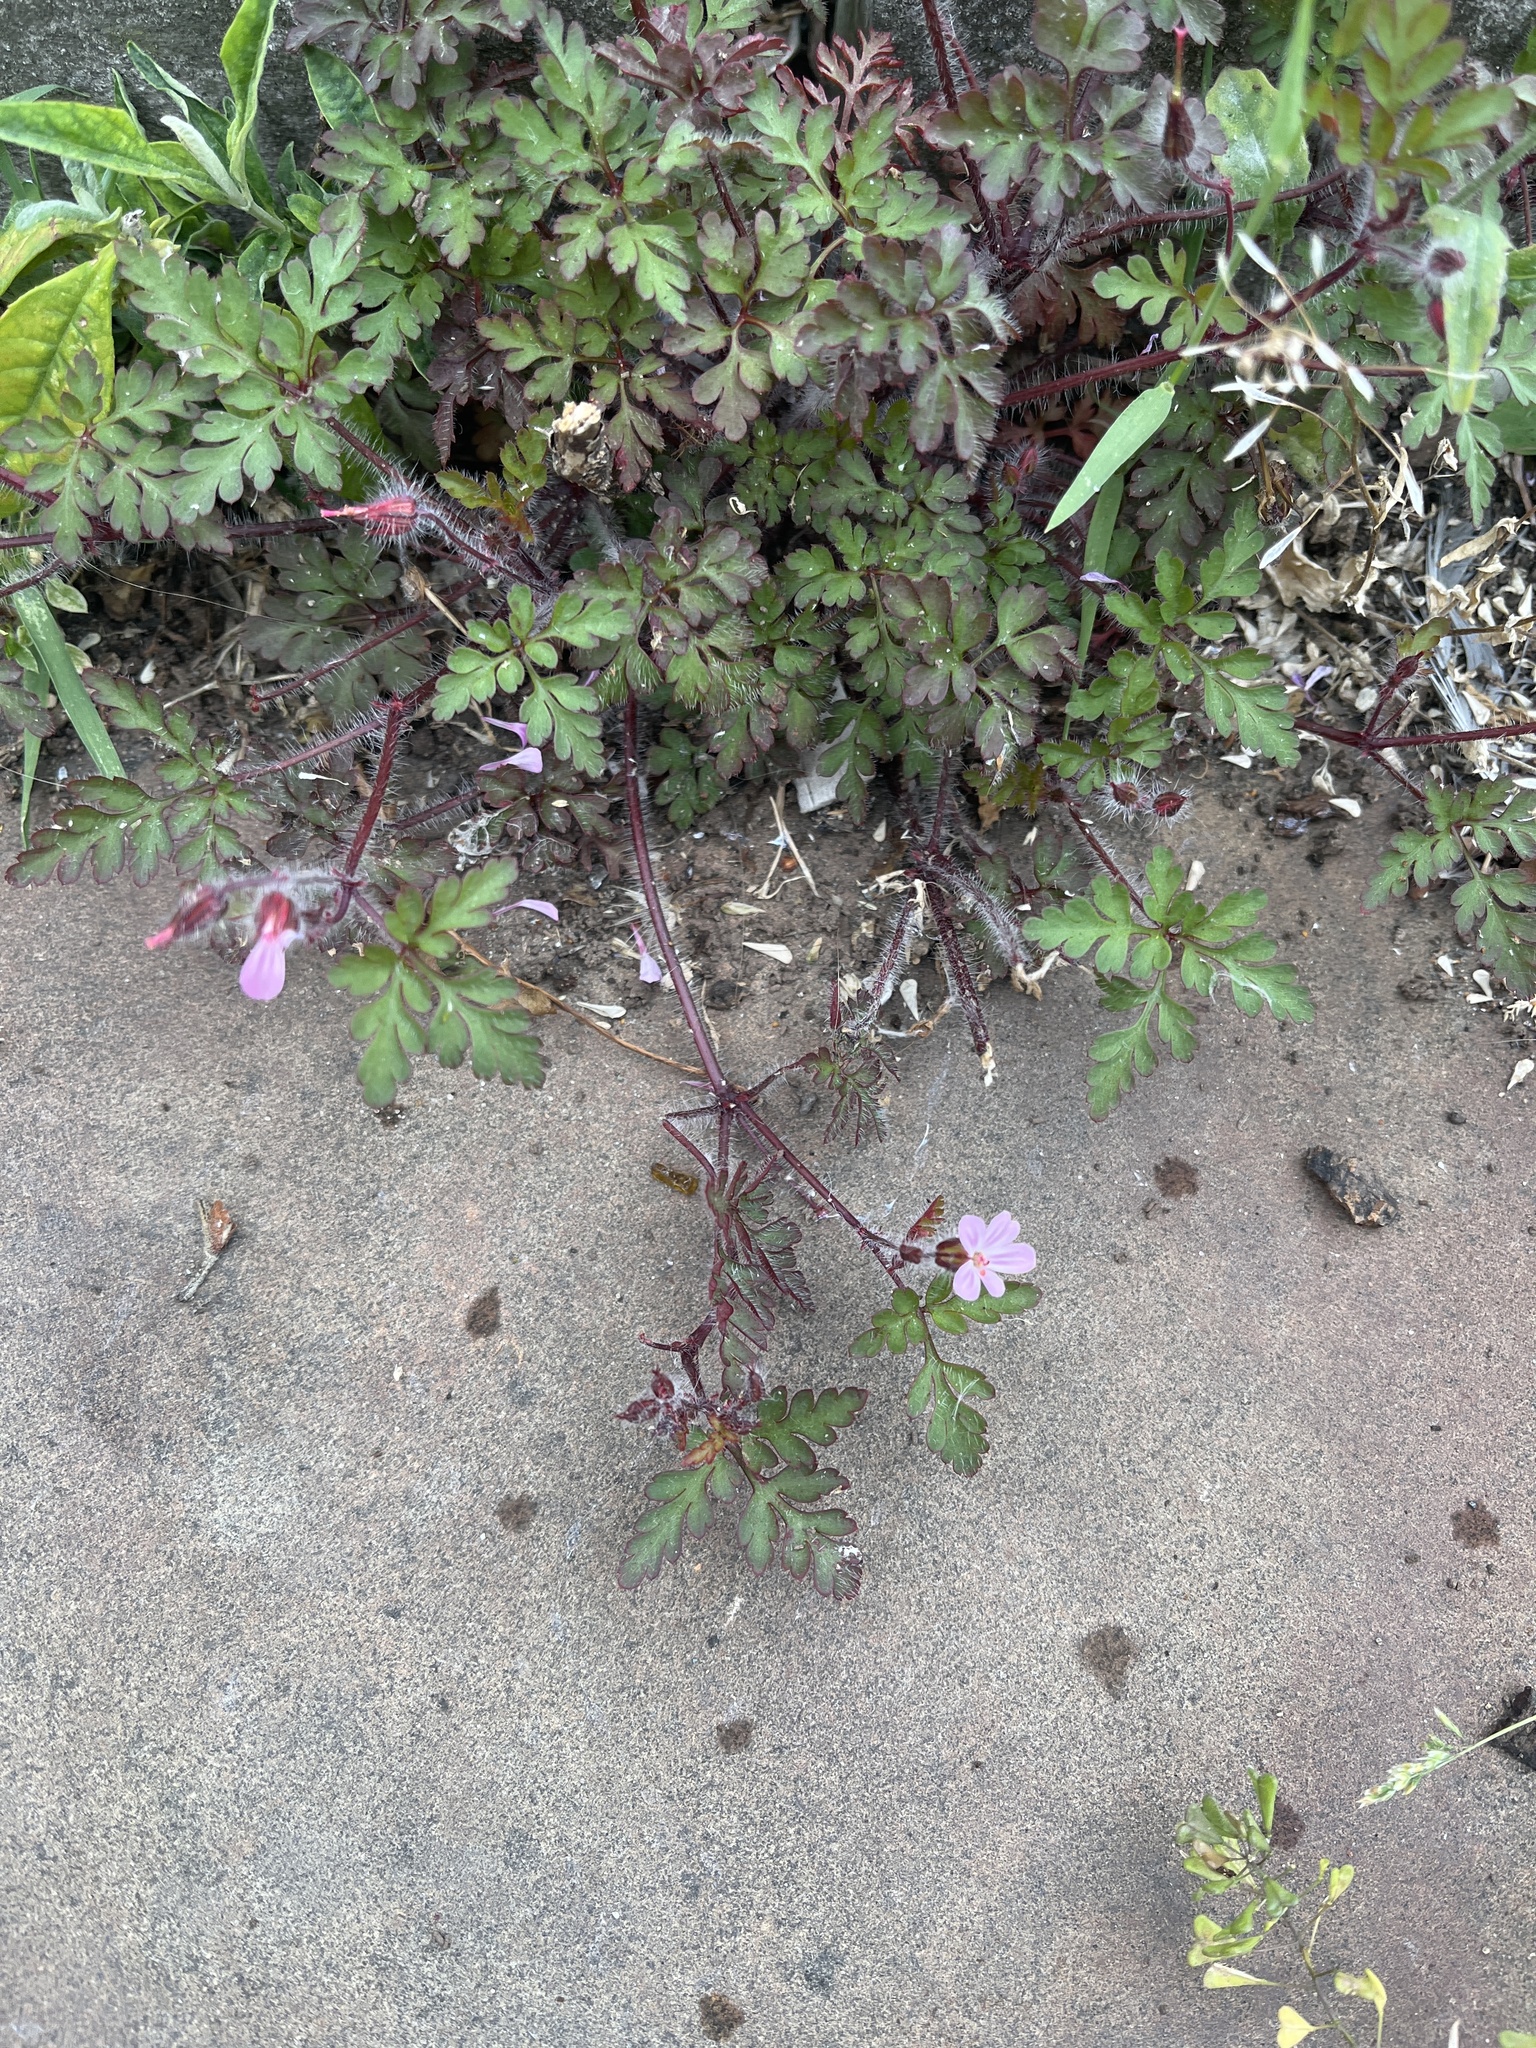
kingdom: Plantae
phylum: Tracheophyta
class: Magnoliopsida
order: Geraniales
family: Geraniaceae
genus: Geranium
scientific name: Geranium robertianum
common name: Herb-robert
